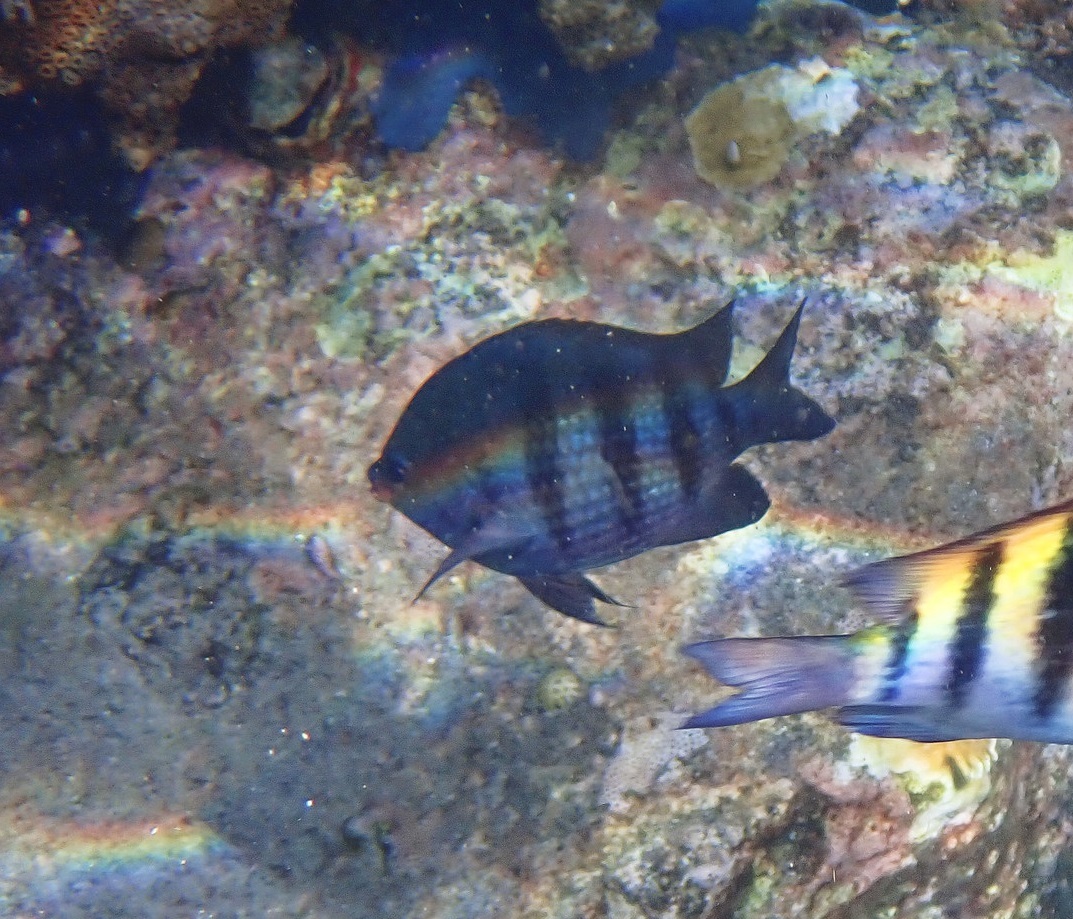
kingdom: Animalia
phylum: Chordata
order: Perciformes
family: Pomacentridae
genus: Abudefduf
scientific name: Abudefduf saxatilis
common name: Sergeant major
